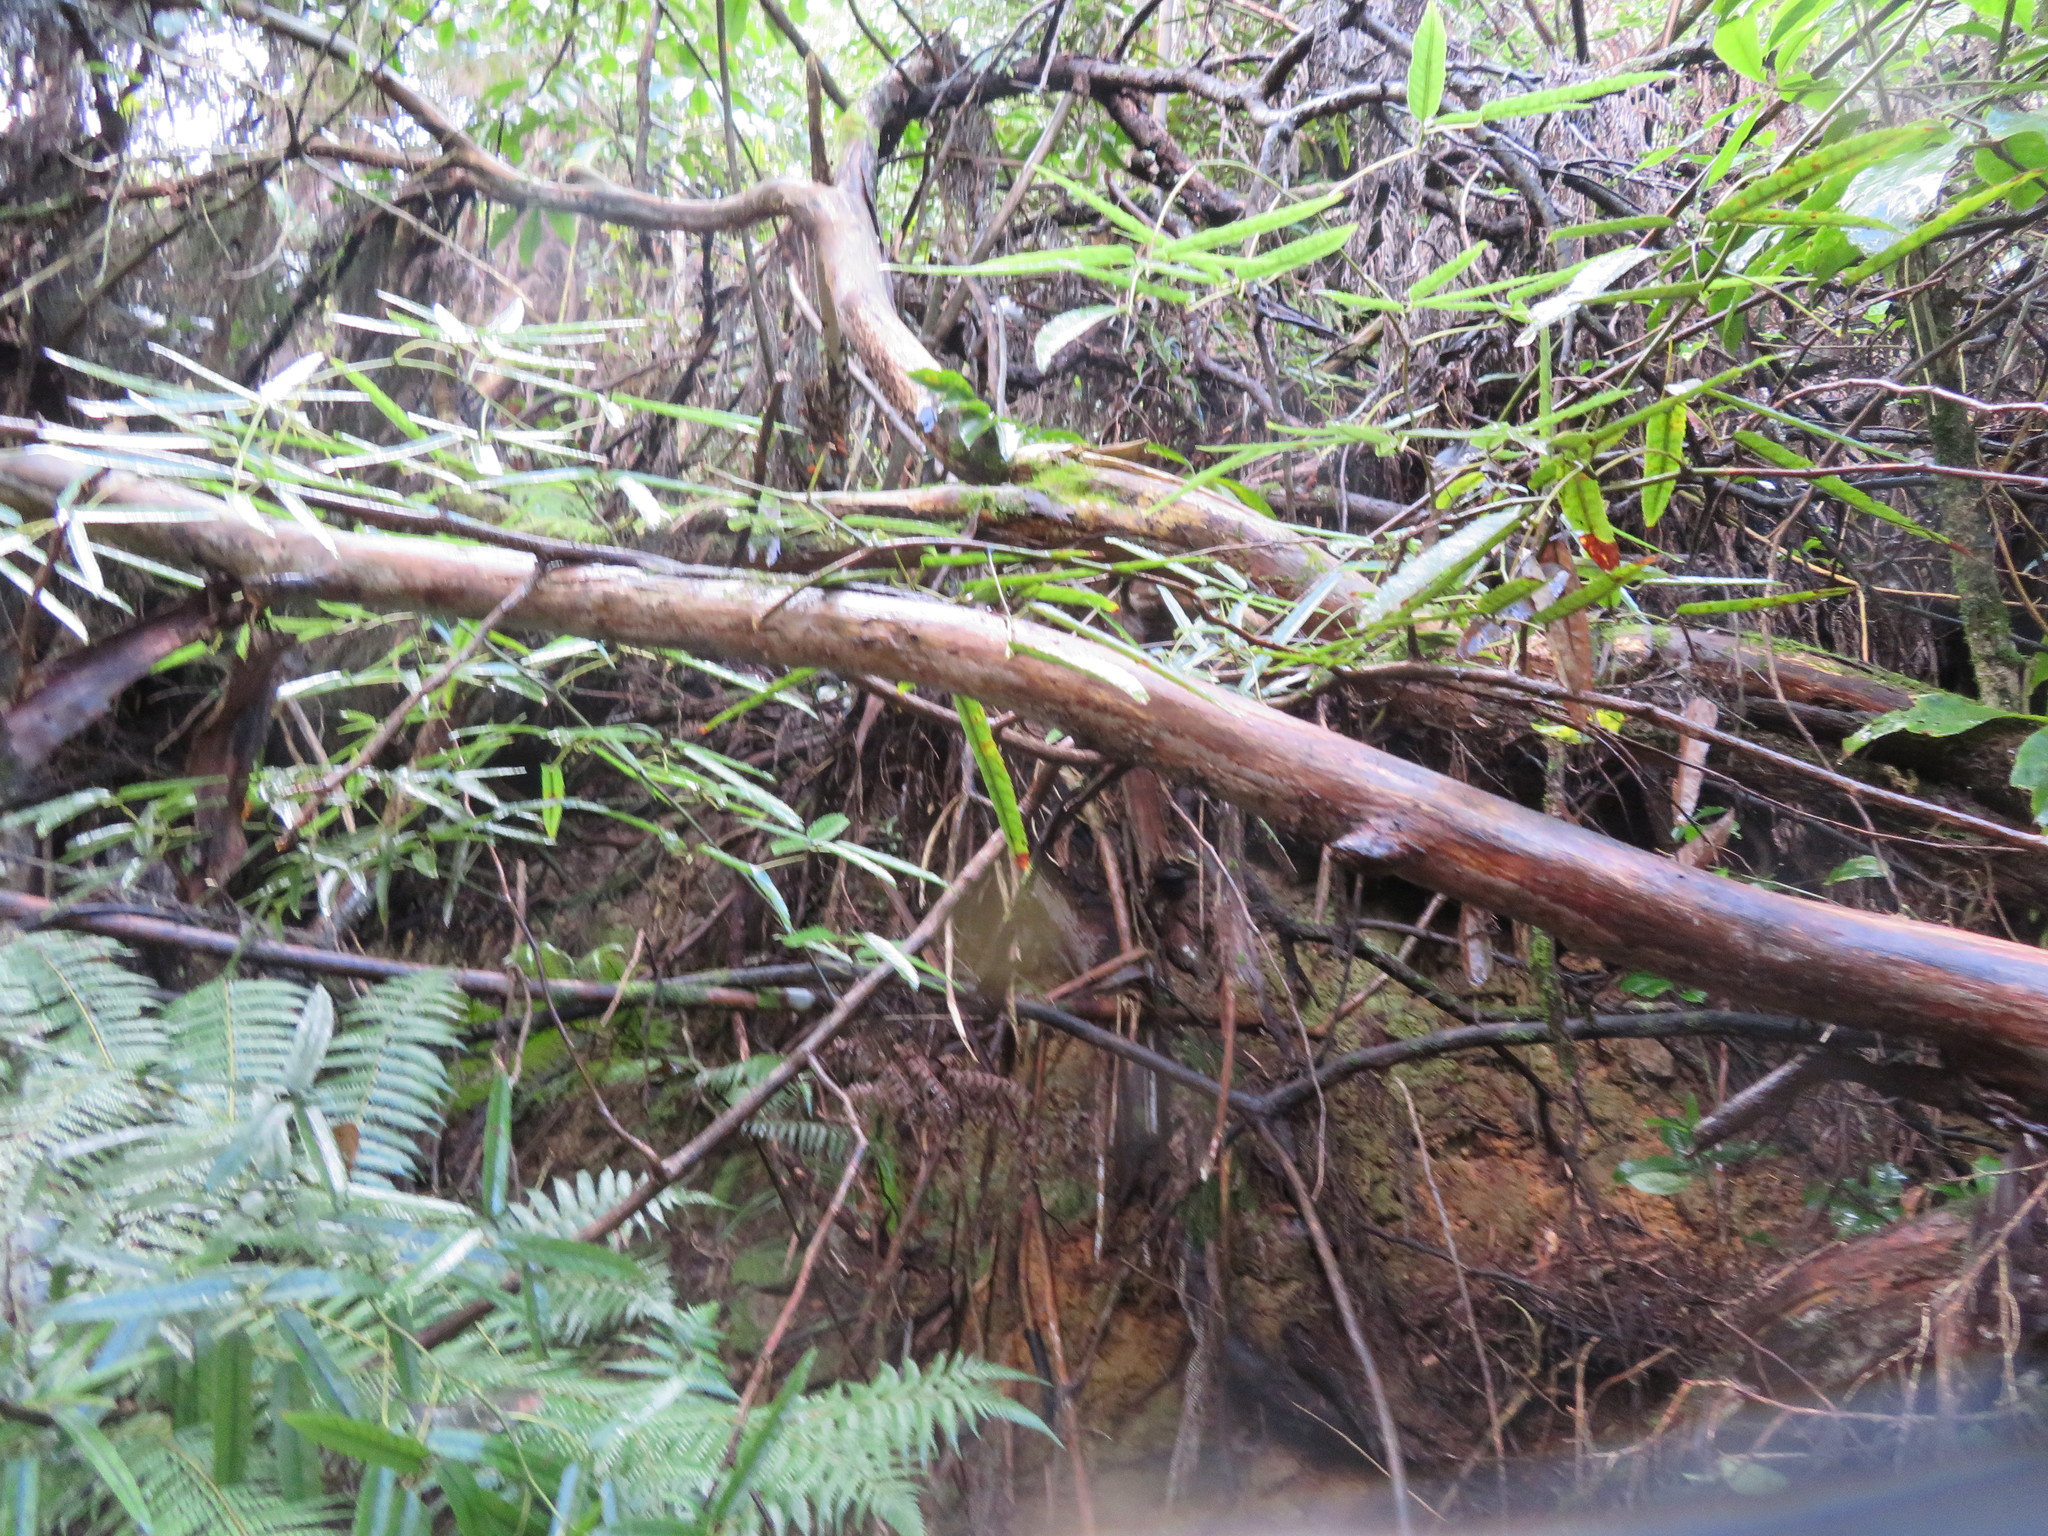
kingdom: Plantae
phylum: Tracheophyta
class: Magnoliopsida
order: Rosales
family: Rosaceae
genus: Rubus
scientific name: Rubus cissoides
